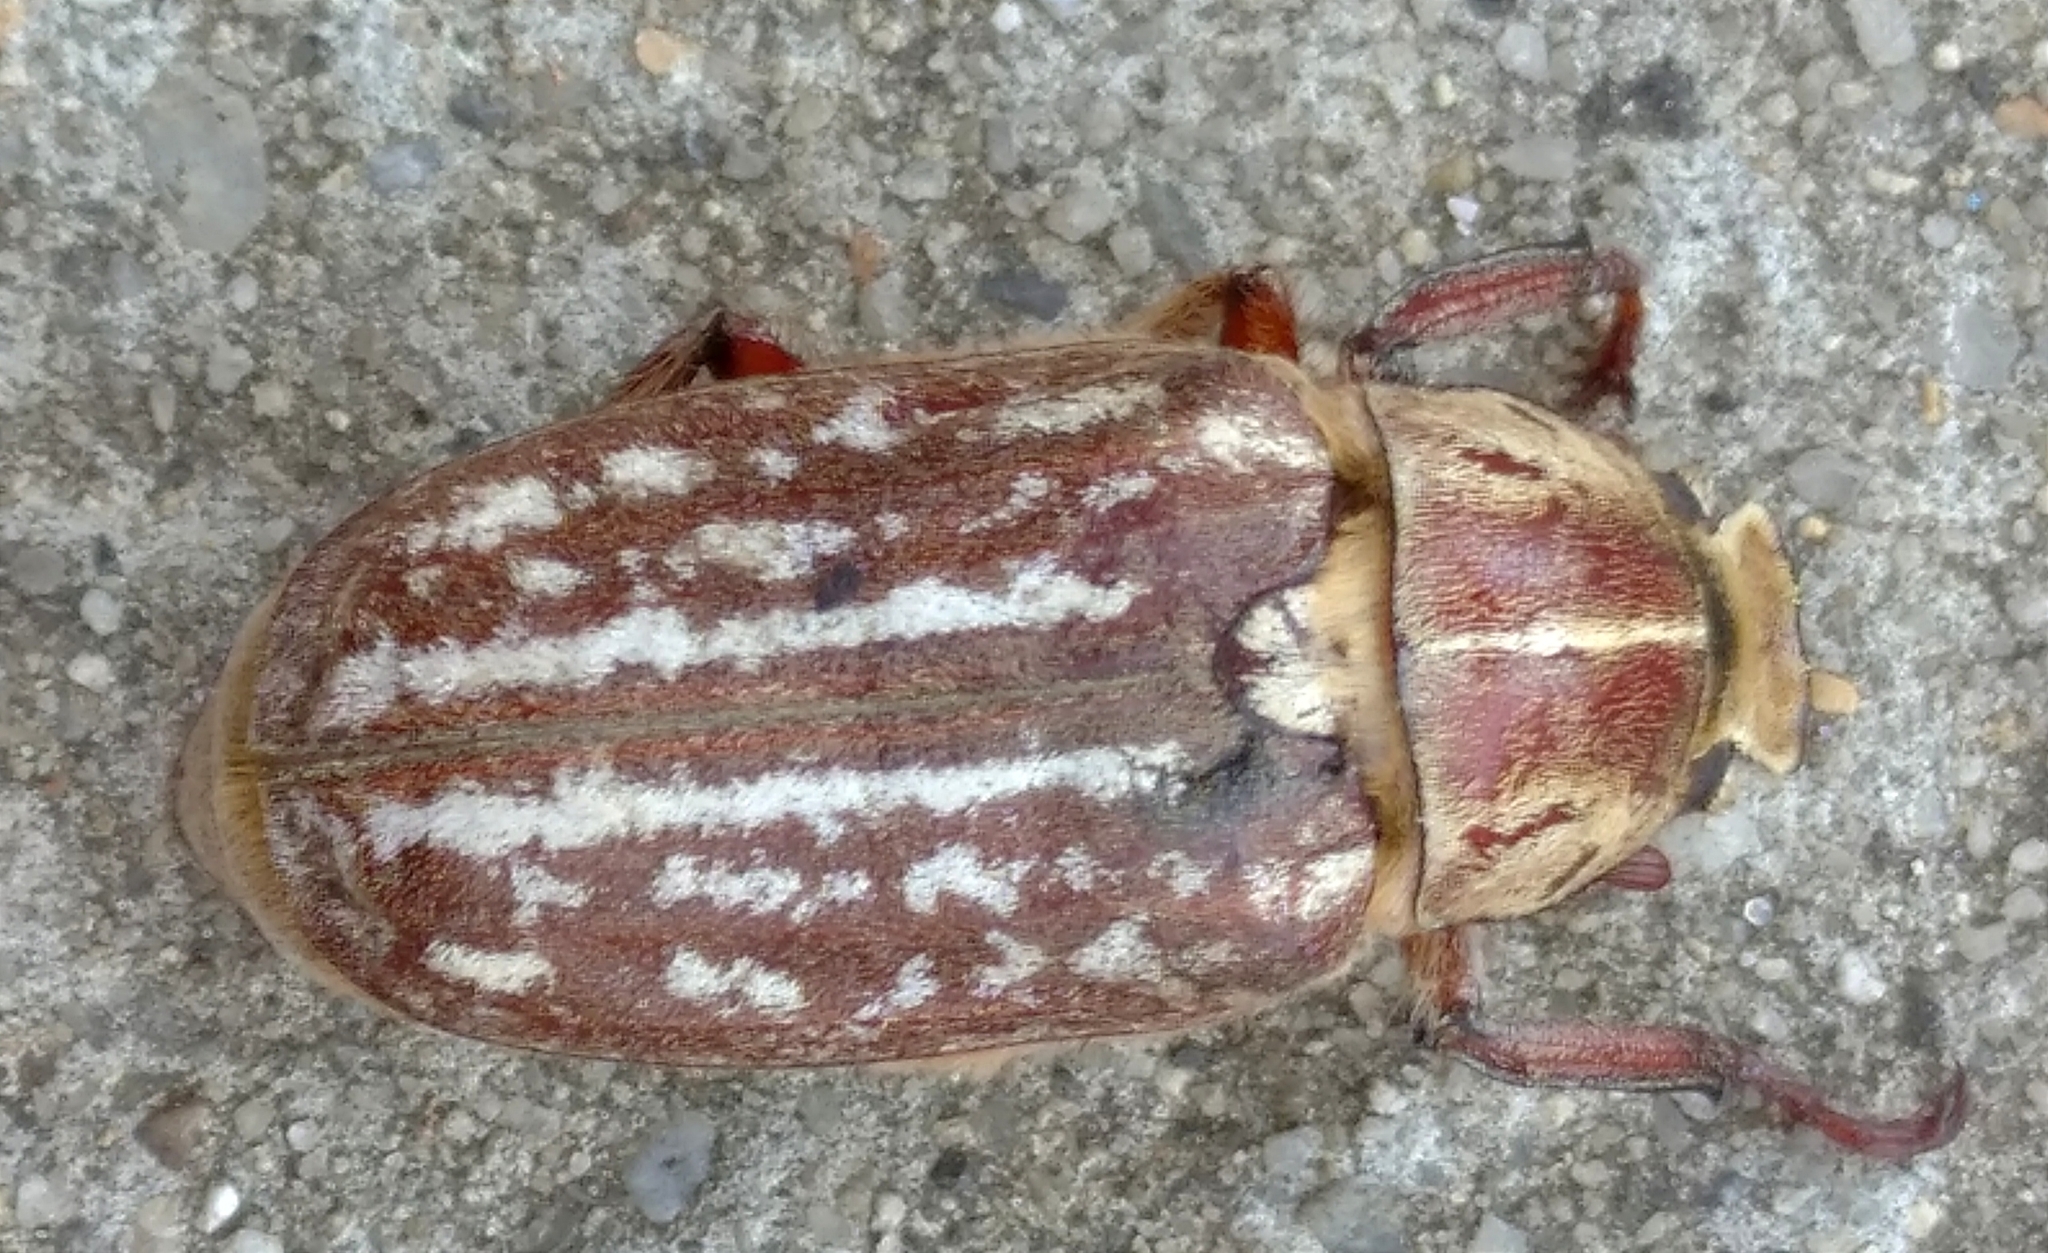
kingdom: Animalia
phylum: Arthropoda
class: Insecta
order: Coleoptera
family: Scarabaeidae
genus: Anoxia
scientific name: Anoxia orientalis
